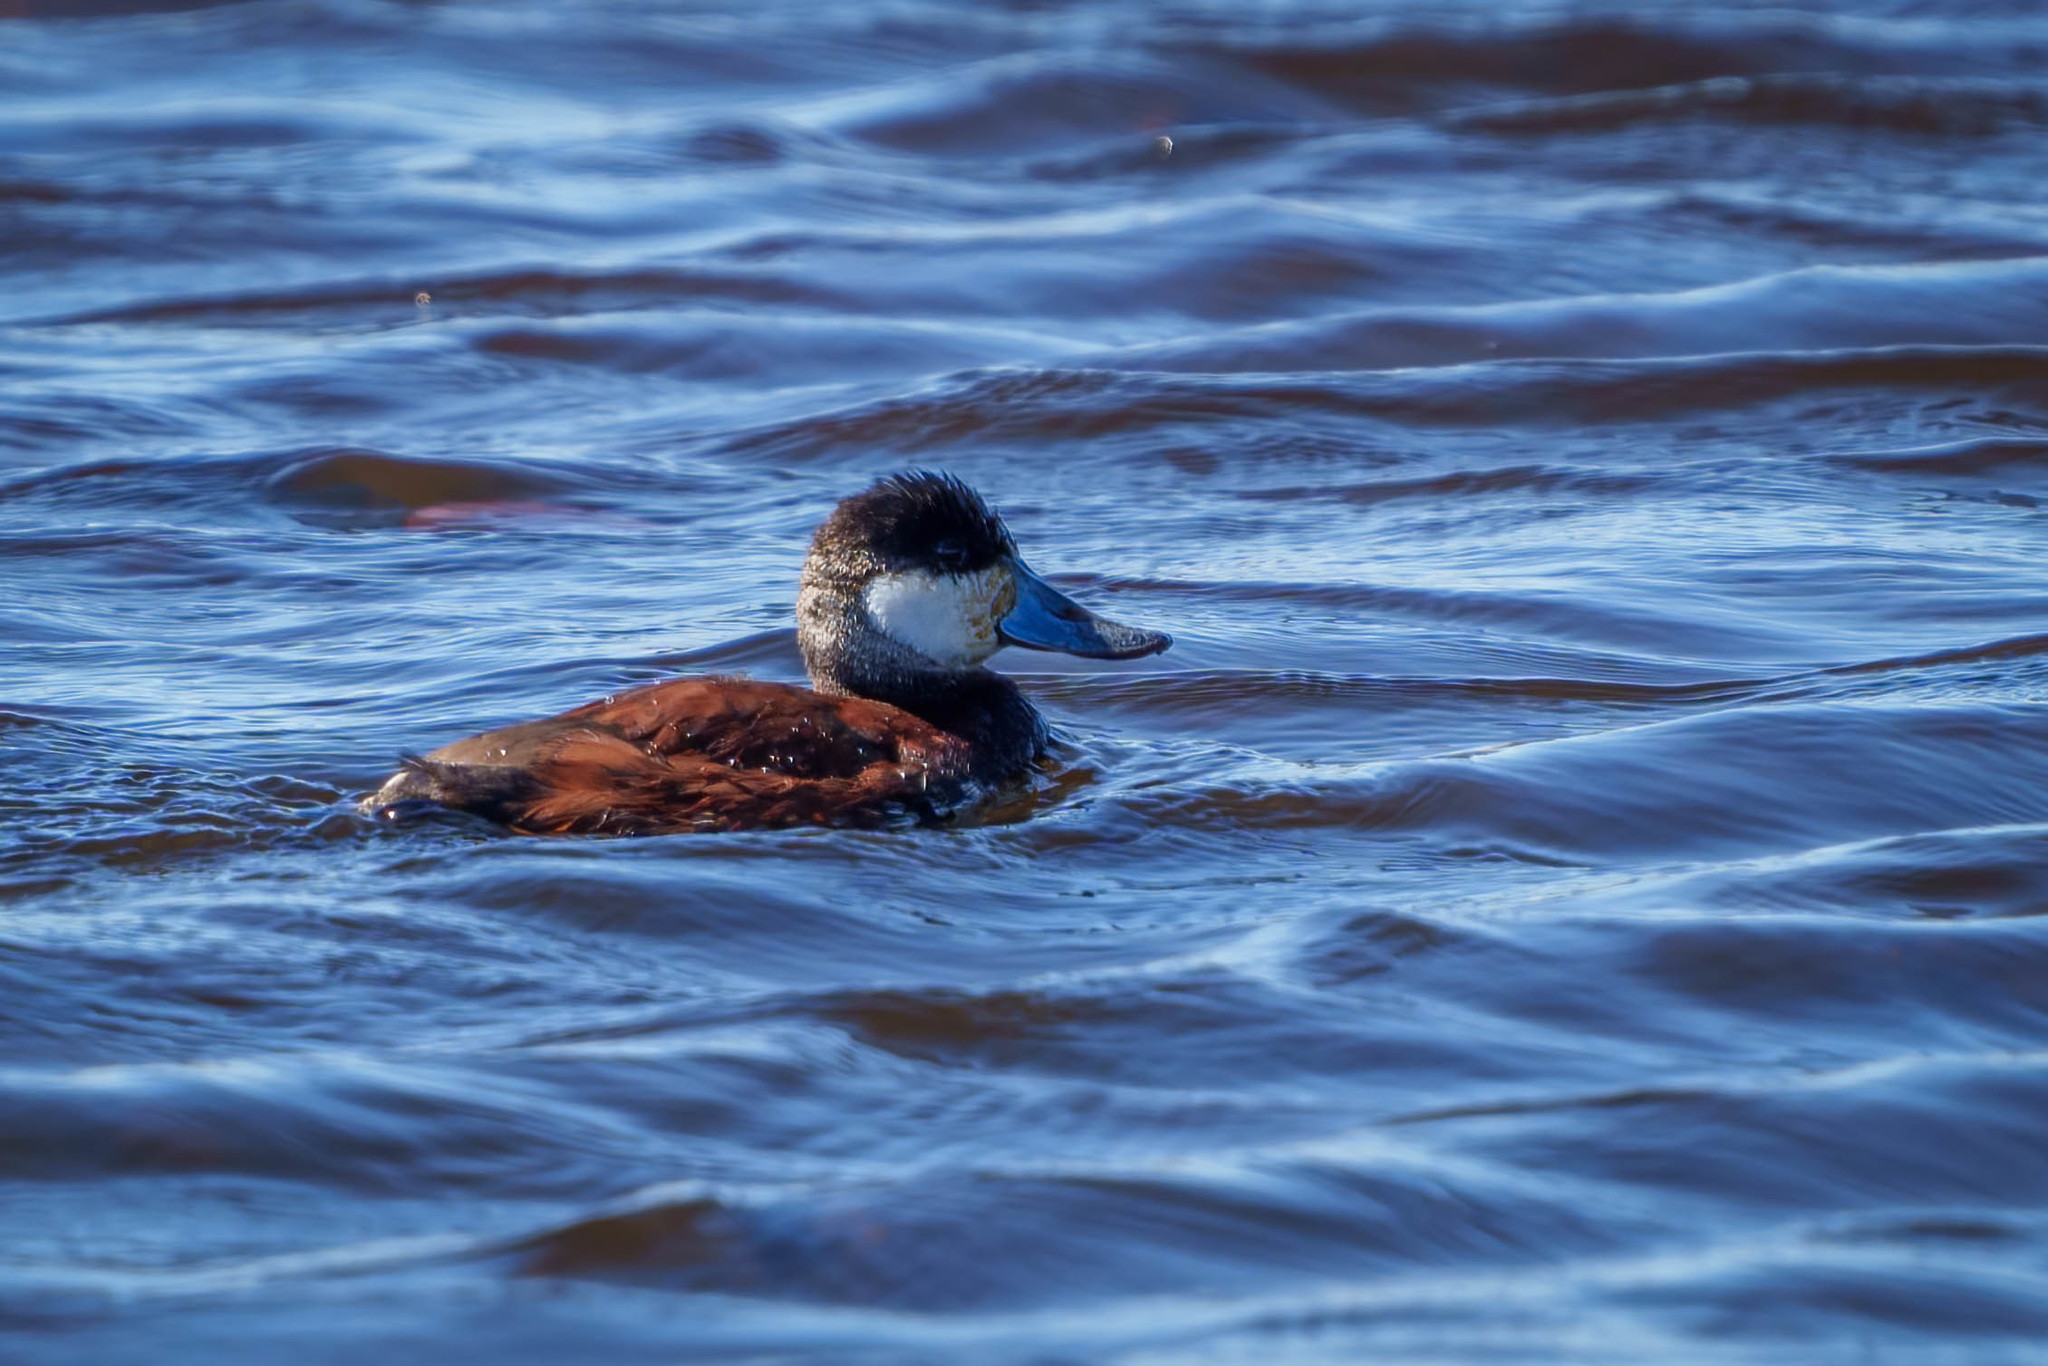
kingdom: Animalia
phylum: Chordata
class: Aves
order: Anseriformes
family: Anatidae
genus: Oxyura
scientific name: Oxyura jamaicensis
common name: Ruddy duck
